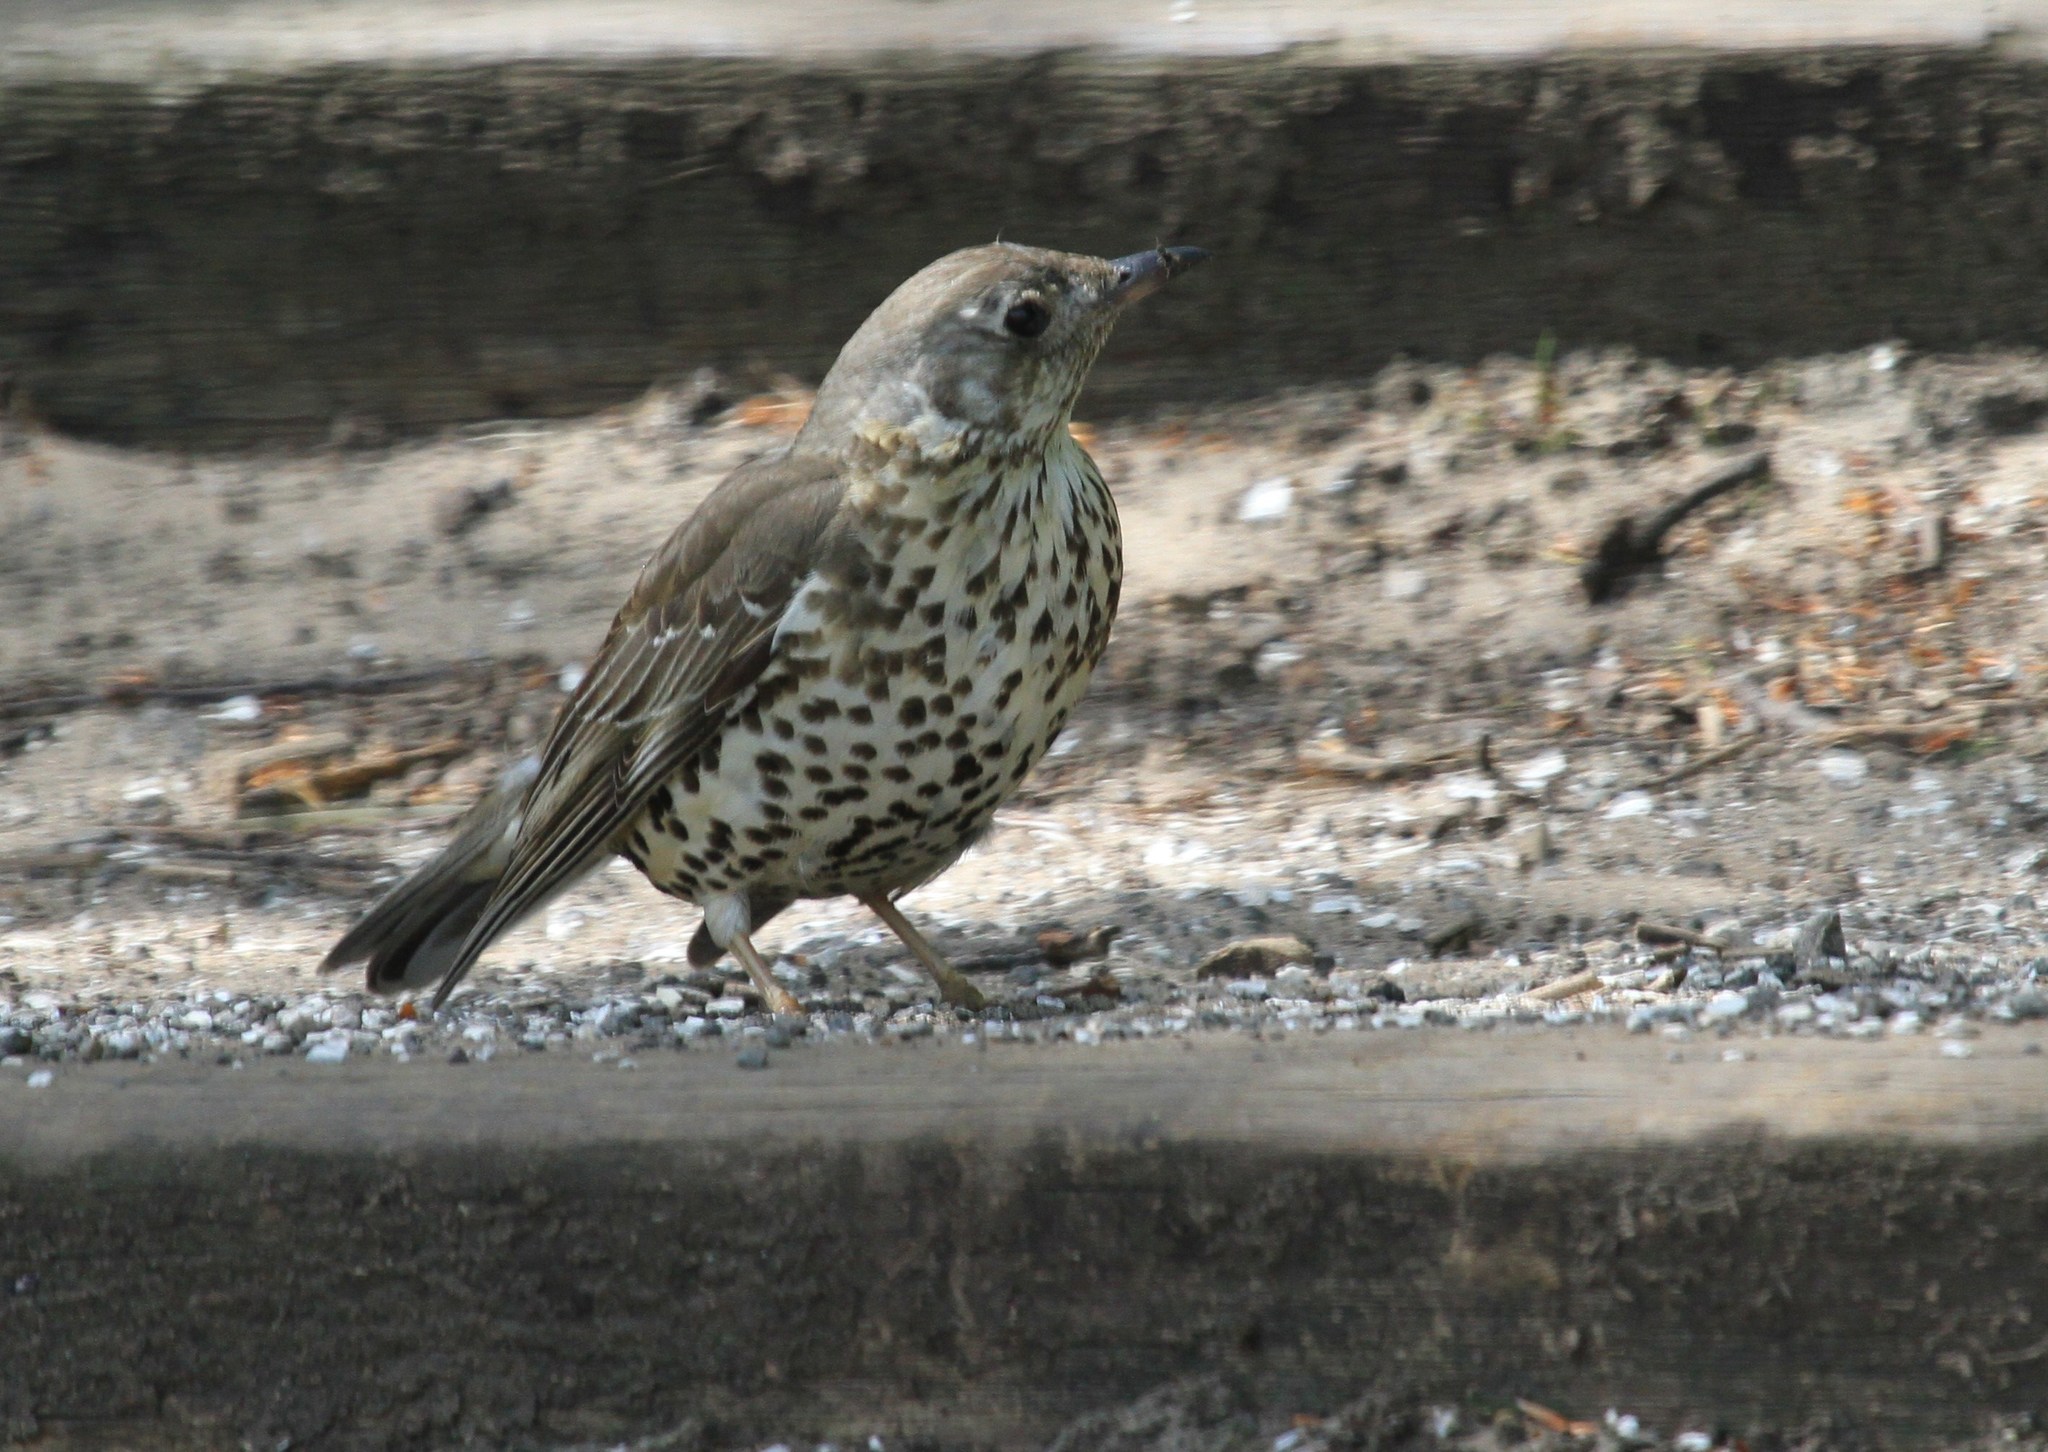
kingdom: Animalia
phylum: Chordata
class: Aves
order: Passeriformes
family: Turdidae
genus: Turdus
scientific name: Turdus viscivorus
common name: Mistle thrush
